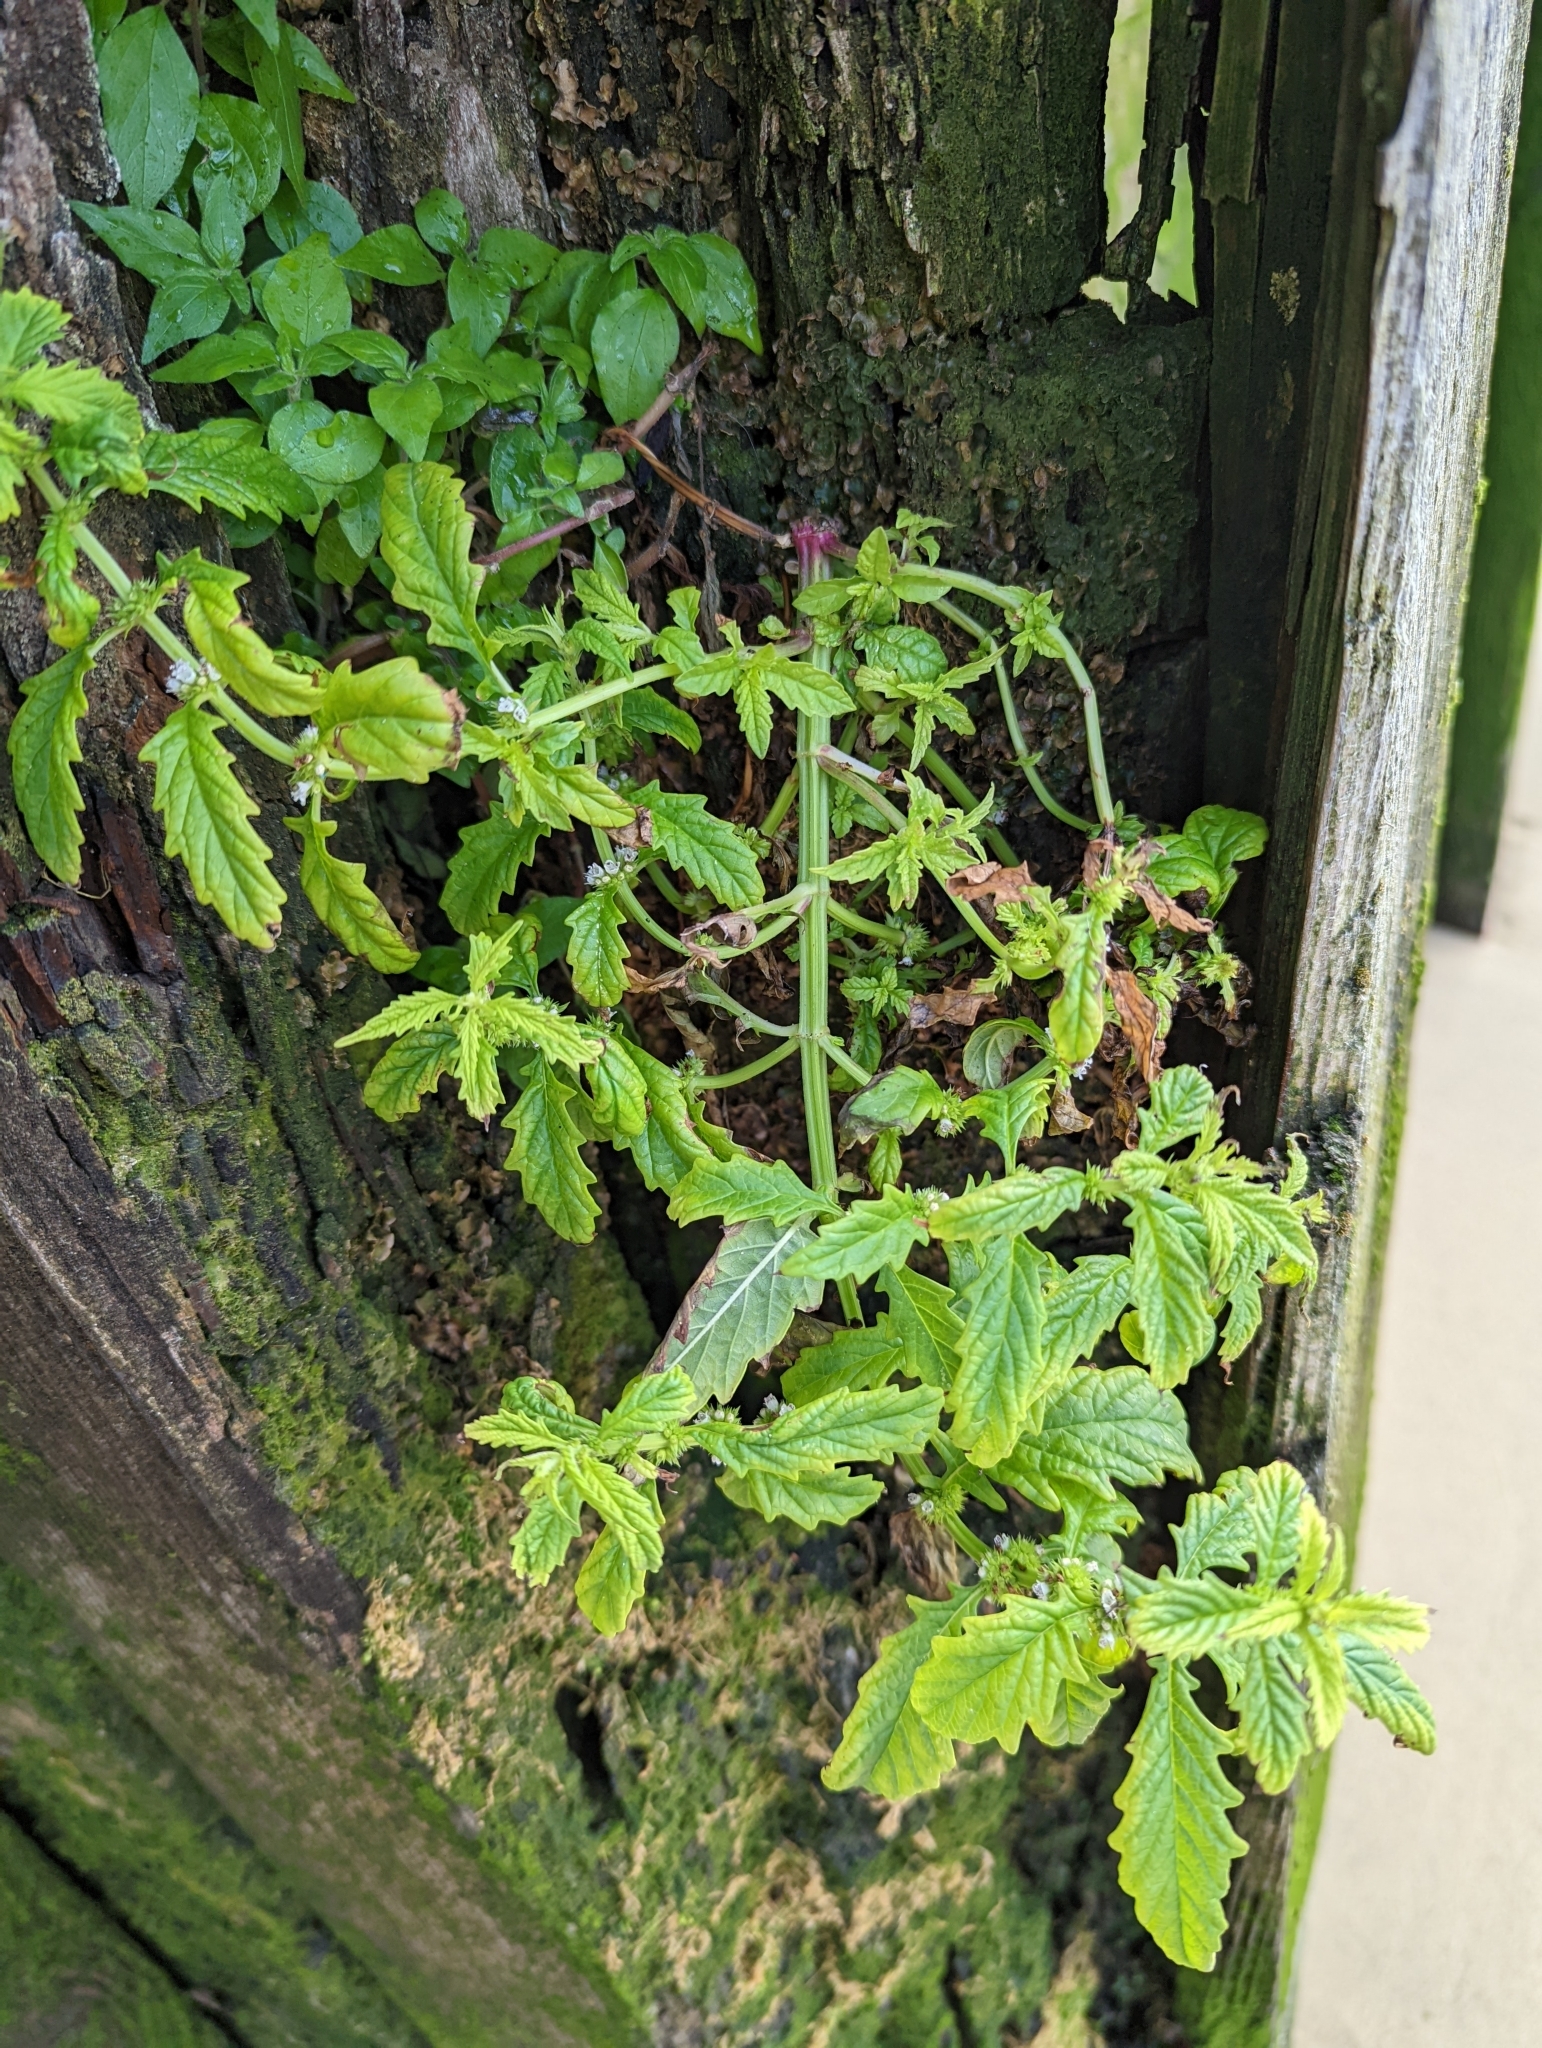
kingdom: Plantae
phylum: Tracheophyta
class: Magnoliopsida
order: Lamiales
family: Lamiaceae
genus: Lycopus
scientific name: Lycopus europaeus
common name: European bugleweed
